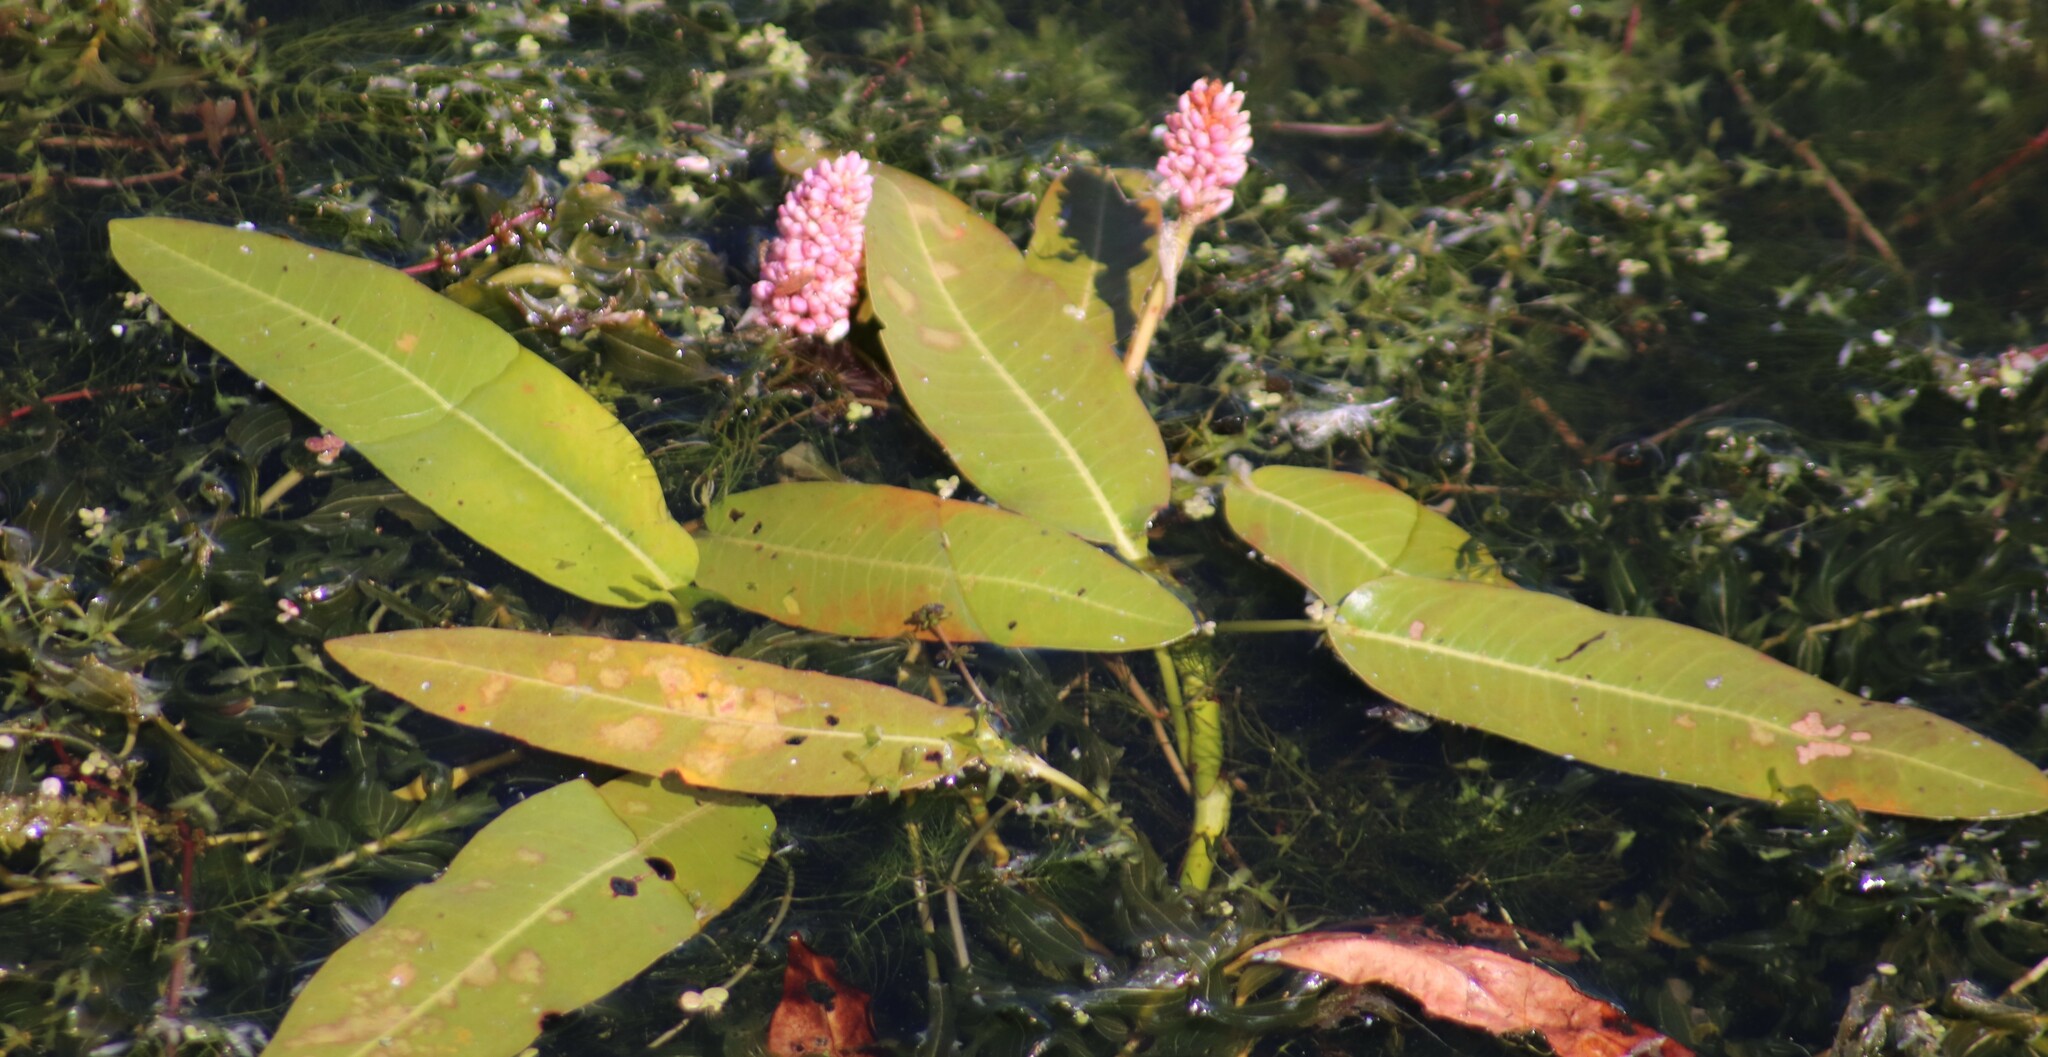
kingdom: Plantae
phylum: Tracheophyta
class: Magnoliopsida
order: Caryophyllales
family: Polygonaceae
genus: Persicaria
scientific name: Persicaria amphibia
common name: Amphibious bistort
